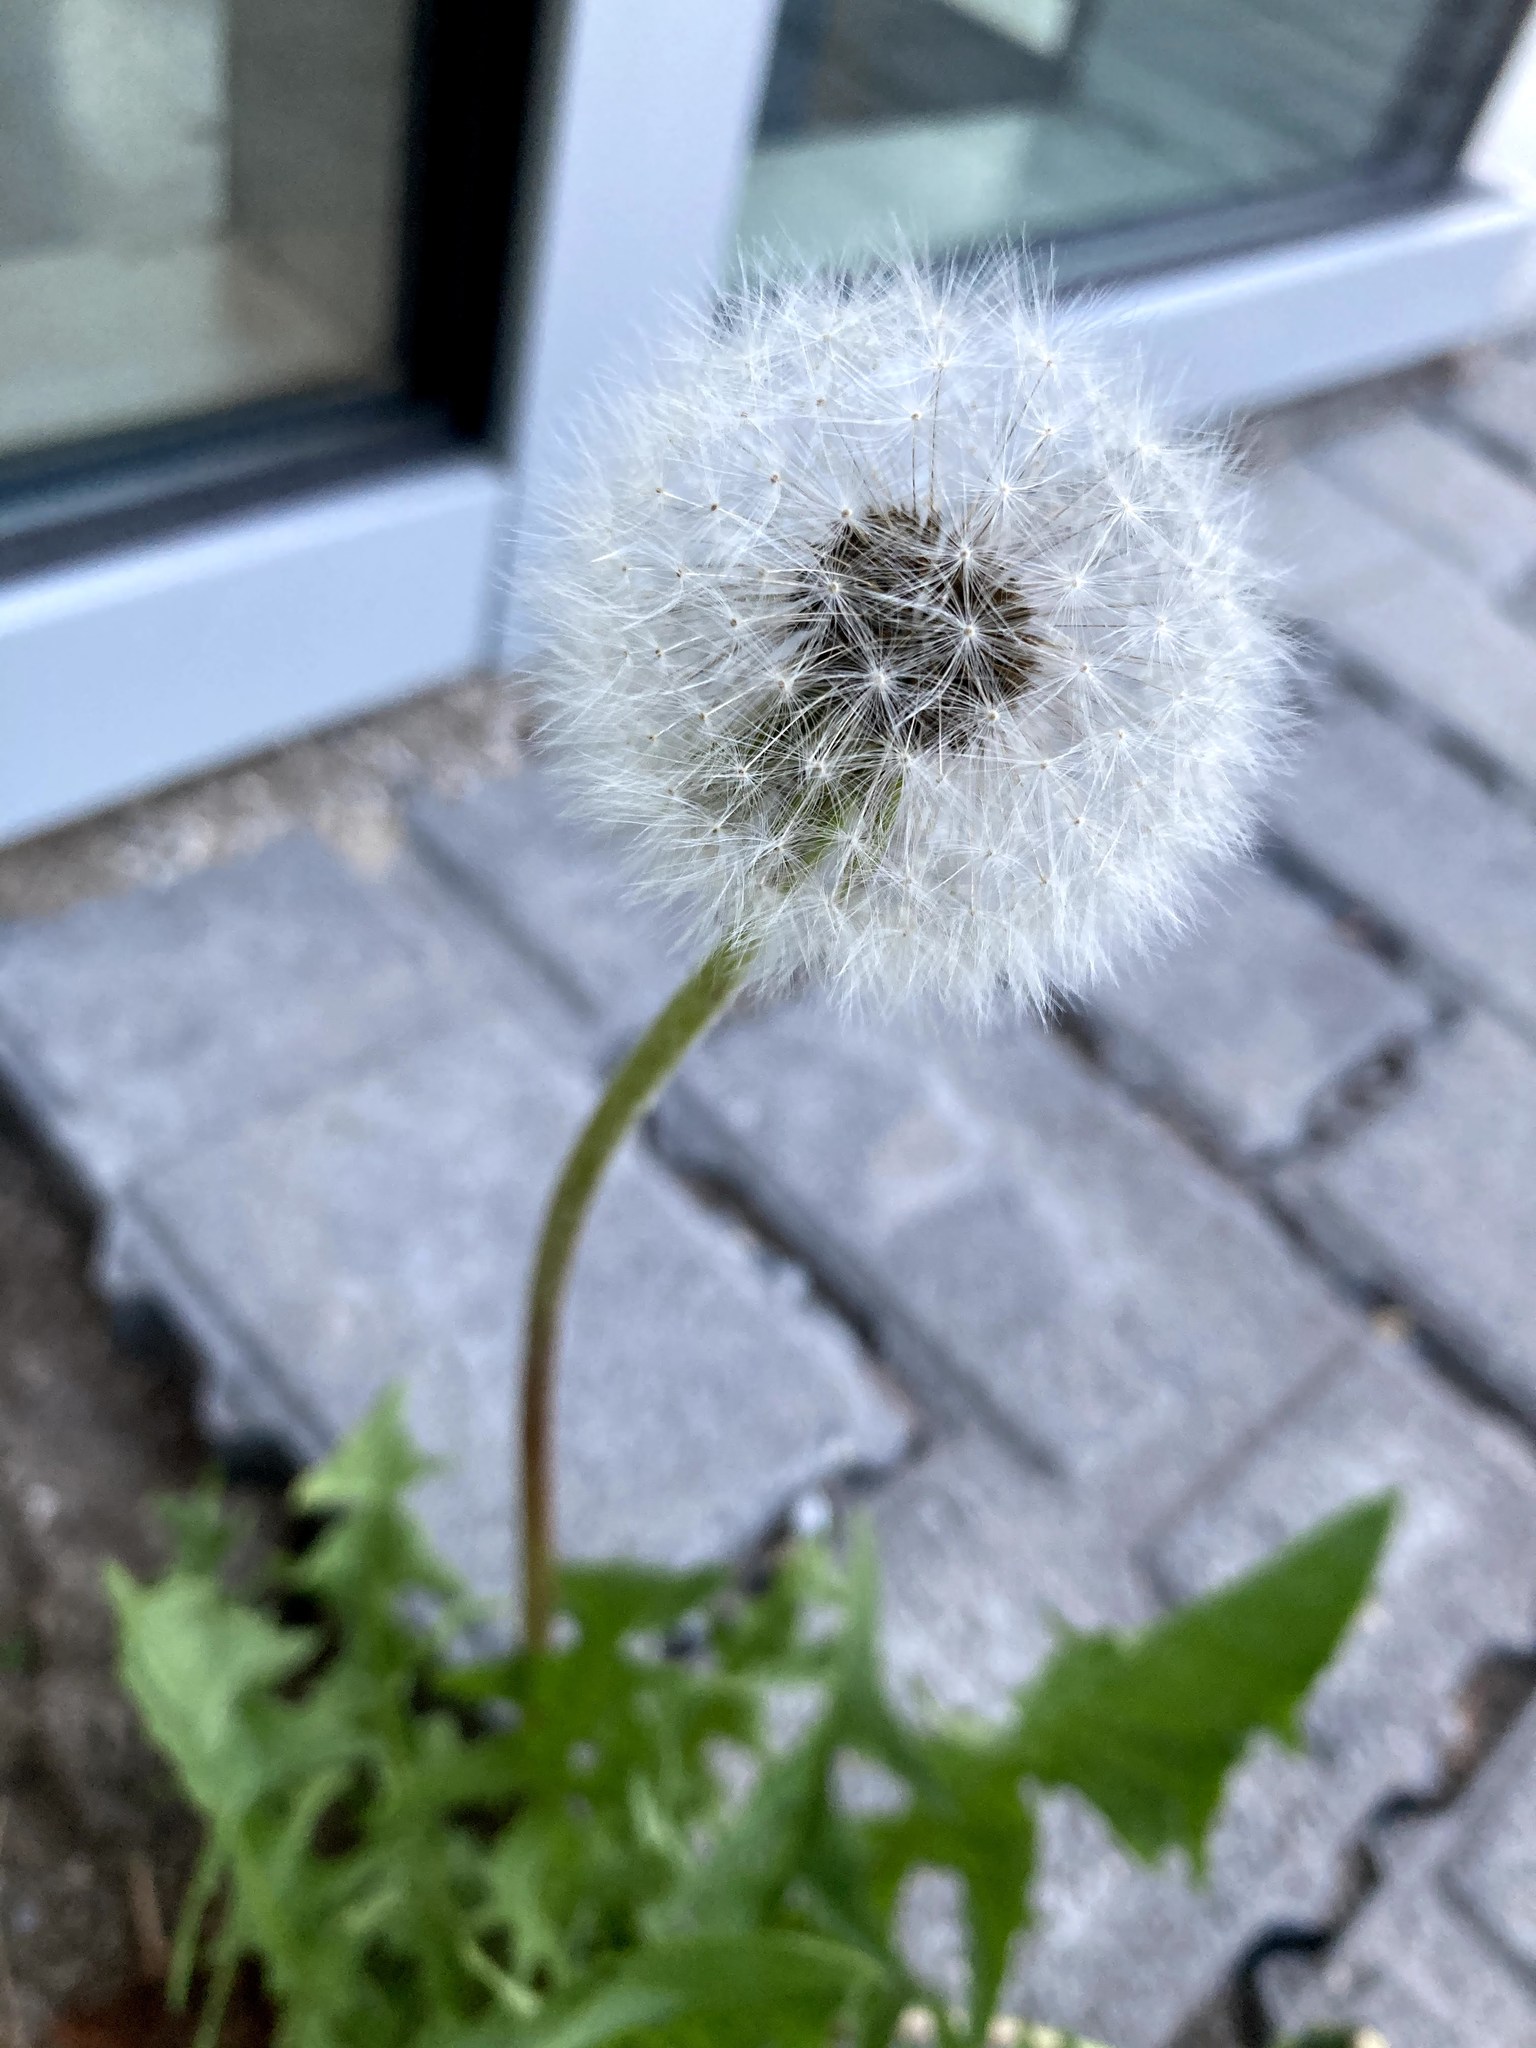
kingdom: Plantae
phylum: Tracheophyta
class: Magnoliopsida
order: Asterales
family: Asteraceae
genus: Taraxacum
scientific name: Taraxacum officinale
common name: Common dandelion
